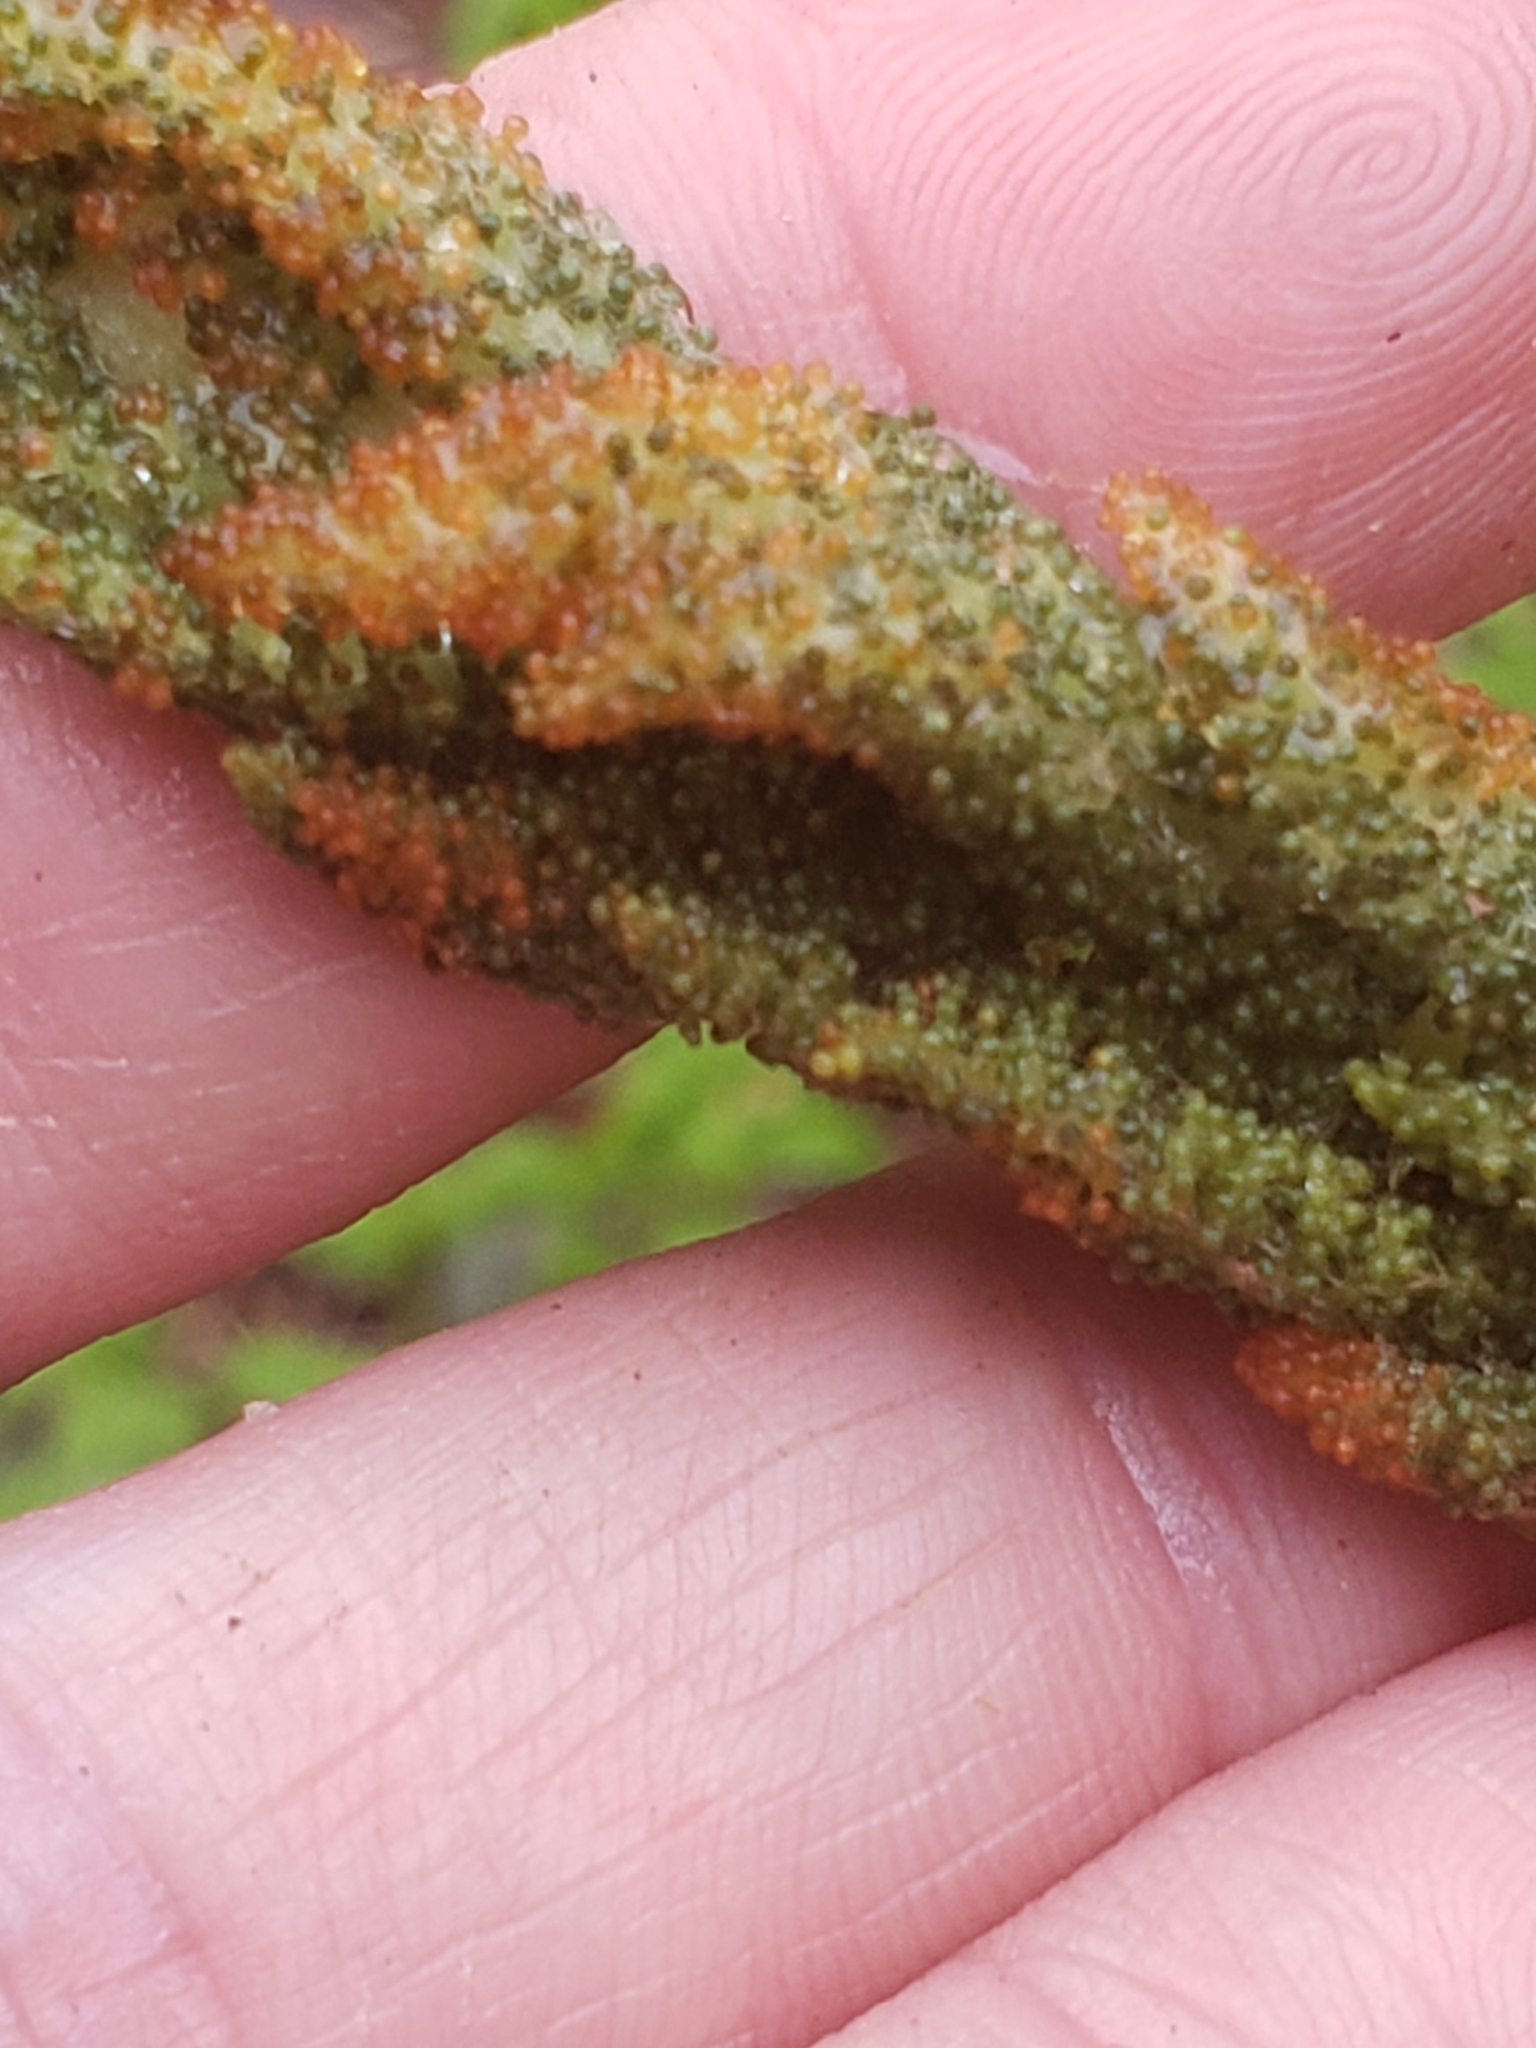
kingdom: Plantae
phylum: Tracheophyta
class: Polypodiopsida
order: Osmundales
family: Osmundaceae
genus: Osmundastrum
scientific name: Osmundastrum cinnamomeum
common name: Cinnamon fern
